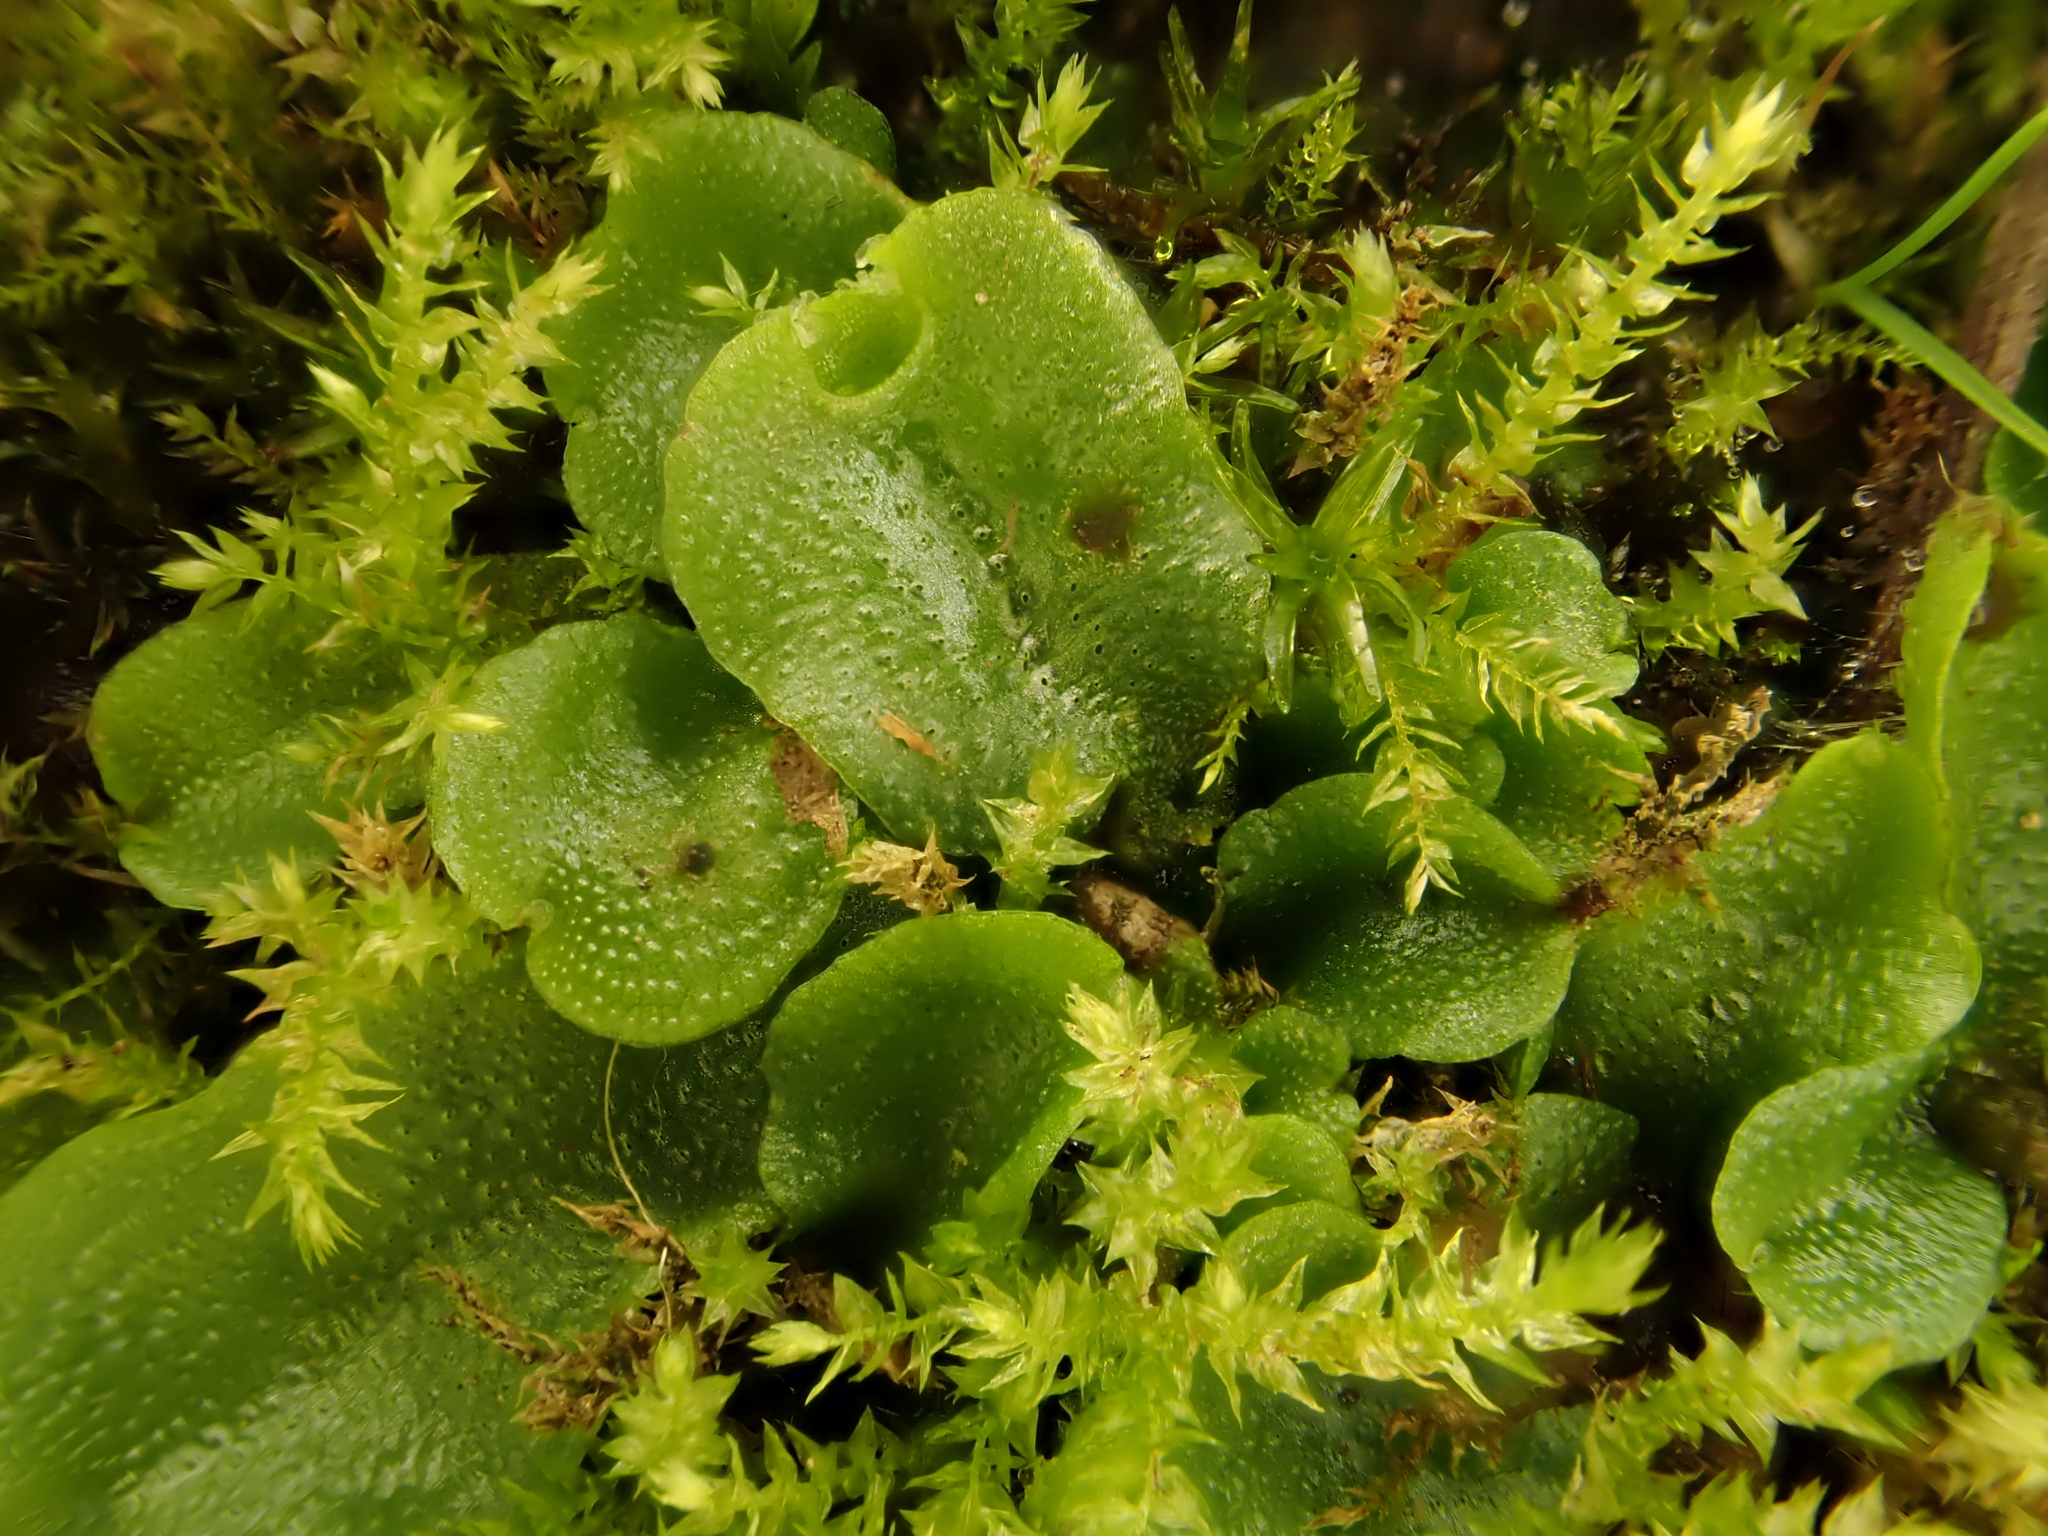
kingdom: Plantae
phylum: Marchantiophyta
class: Marchantiopsida
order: Lunulariales
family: Lunulariaceae
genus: Lunularia
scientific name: Lunularia cruciata
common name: Crescent-cup liverwort
